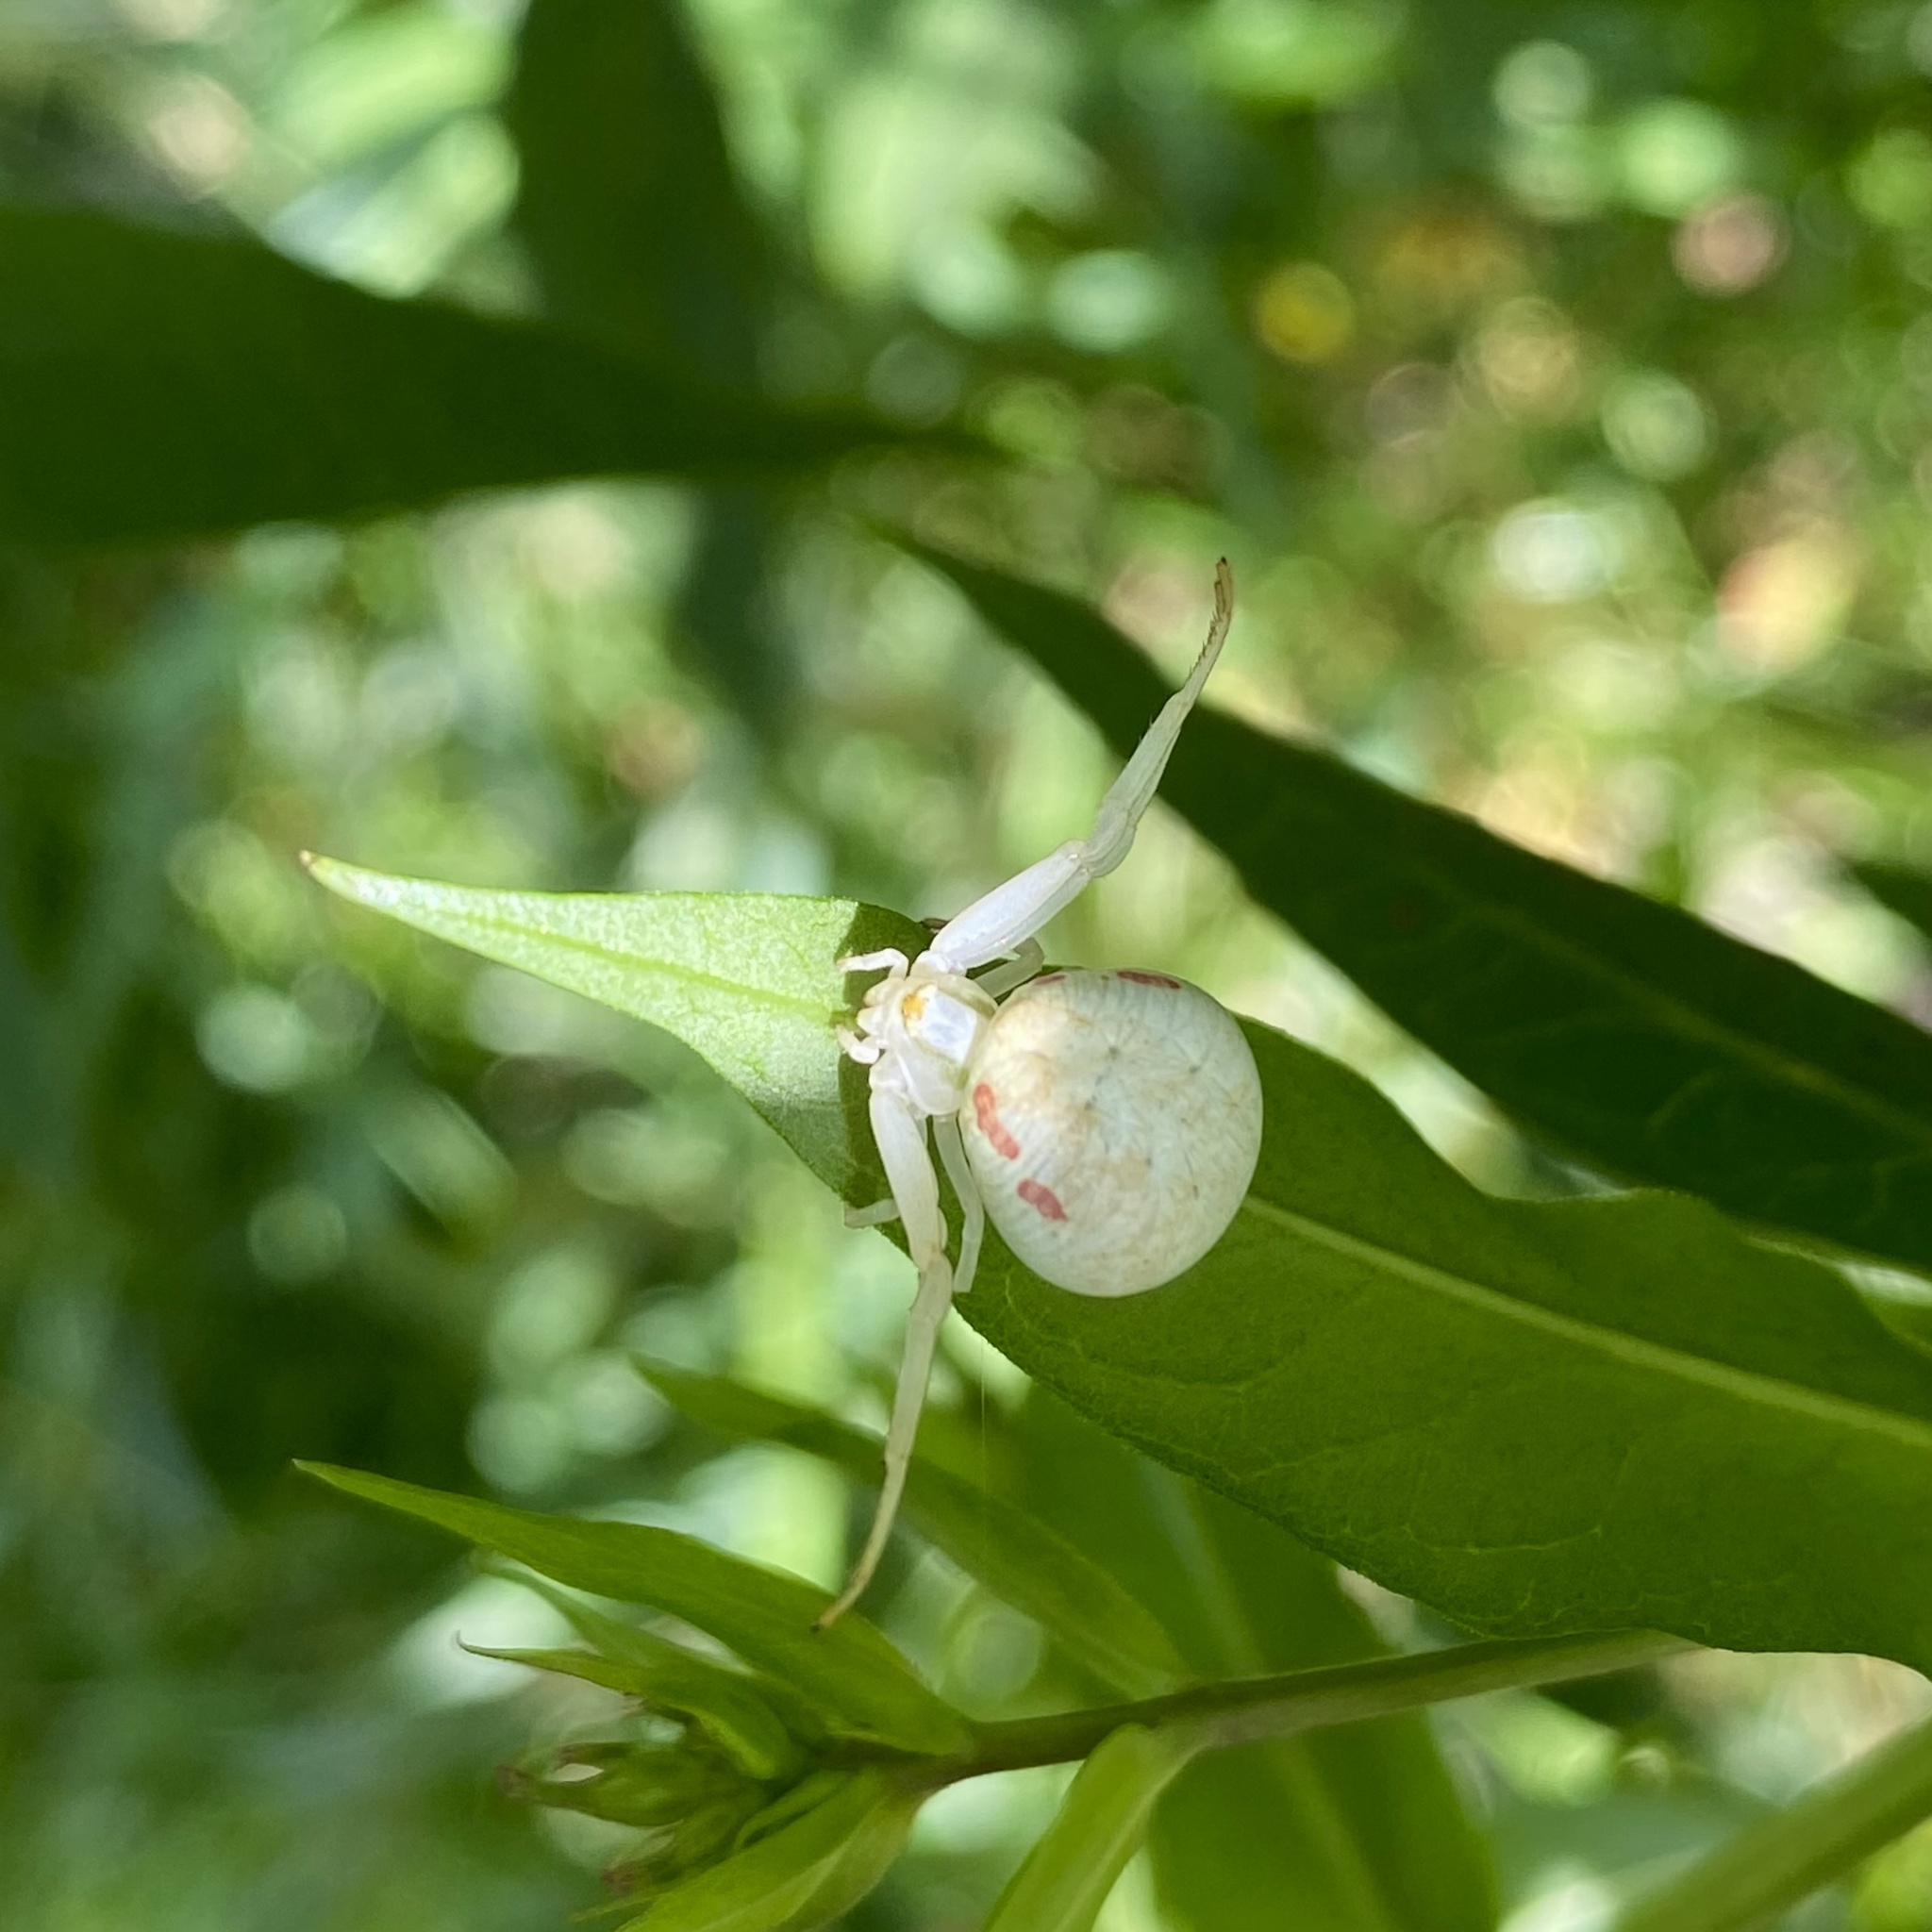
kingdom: Animalia
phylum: Arthropoda
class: Arachnida
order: Araneae
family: Thomisidae
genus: Misumena
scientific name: Misumena vatia
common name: Goldenrod crab spider
